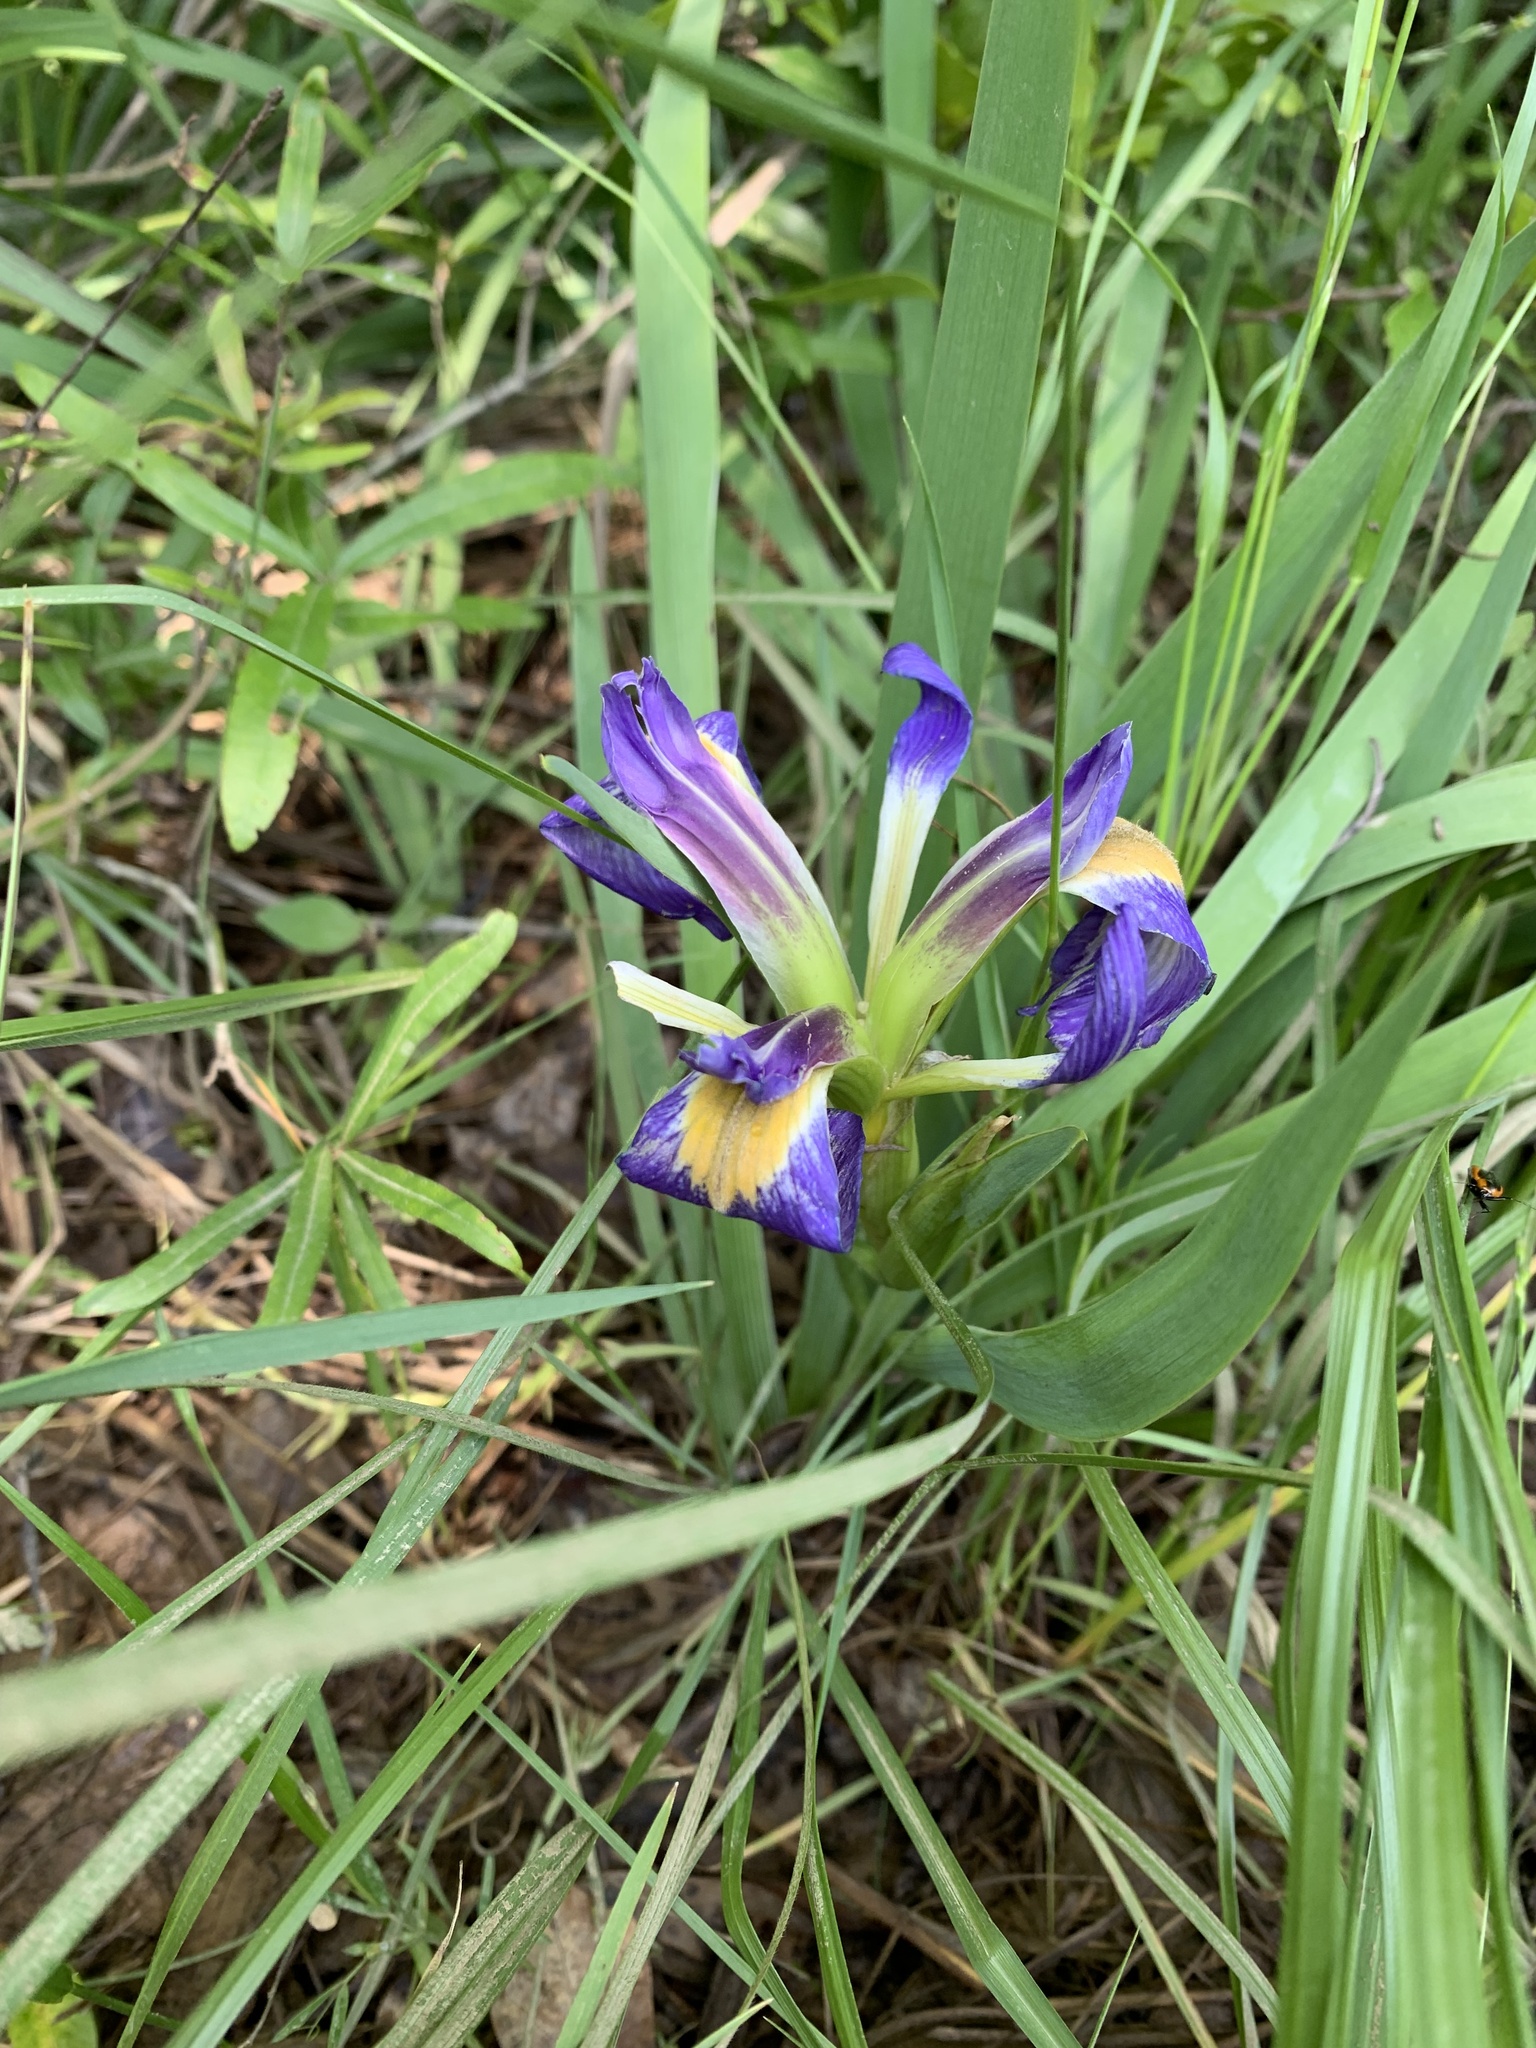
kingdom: Plantae
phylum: Tracheophyta
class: Liliopsida
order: Asparagales
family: Iridaceae
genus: Iris
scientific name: Iris brevicaulis
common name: Zigzag iris
